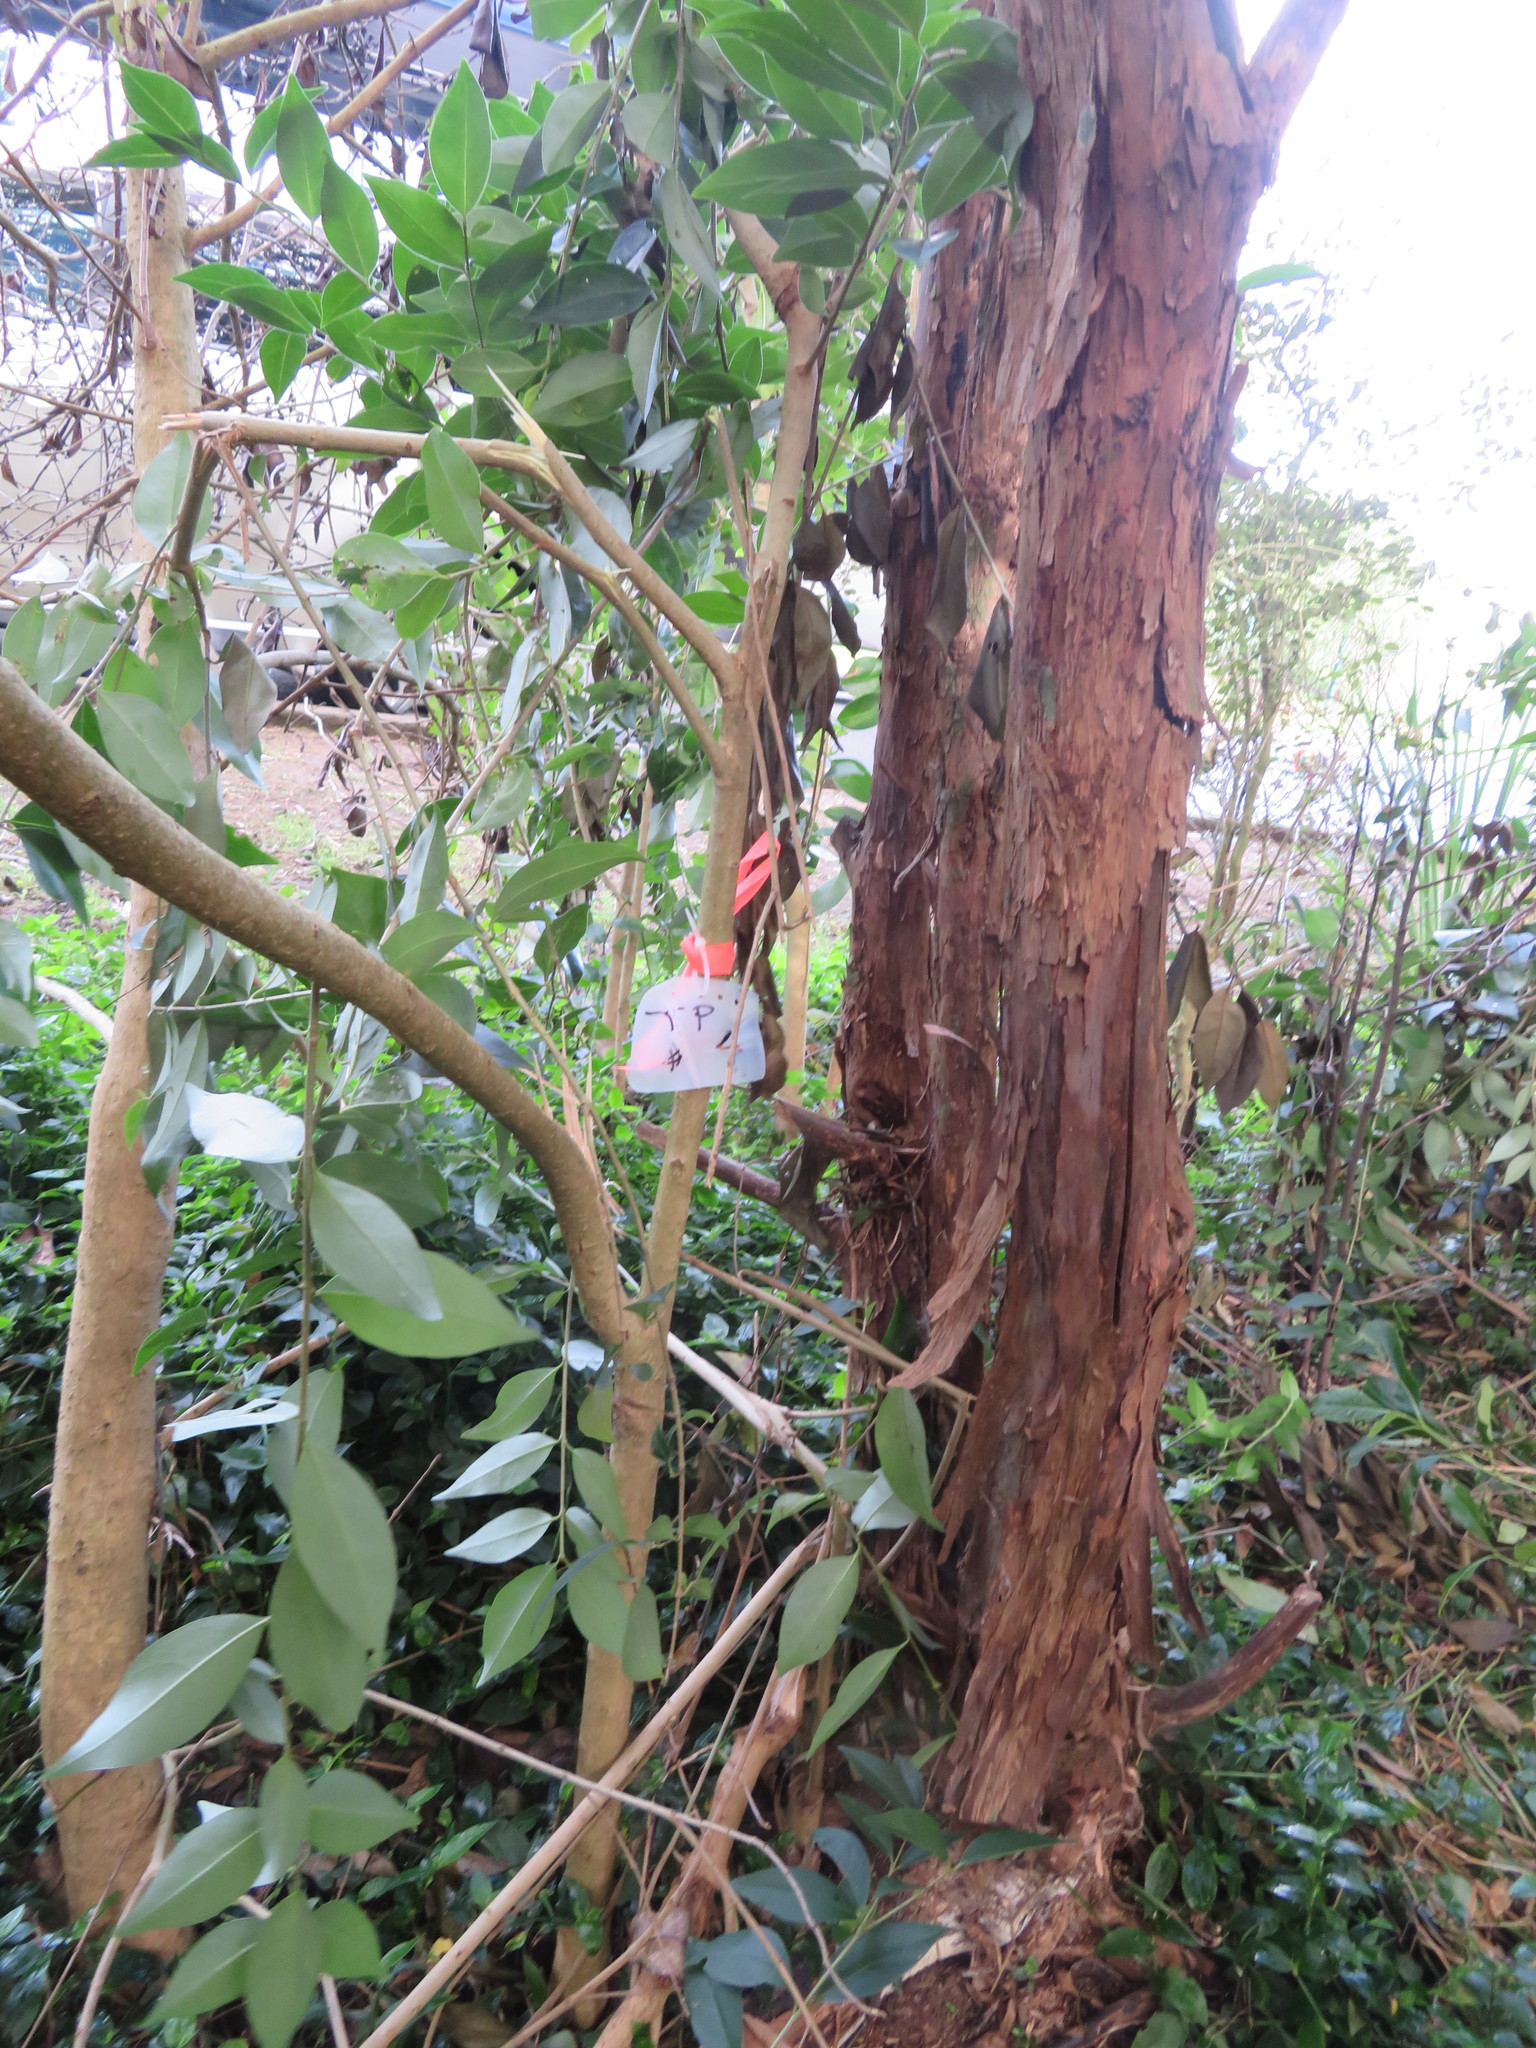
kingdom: Plantae
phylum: Tracheophyta
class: Magnoliopsida
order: Lamiales
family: Oleaceae
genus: Ligustrum
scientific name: Ligustrum lucidum
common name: Glossy privet
